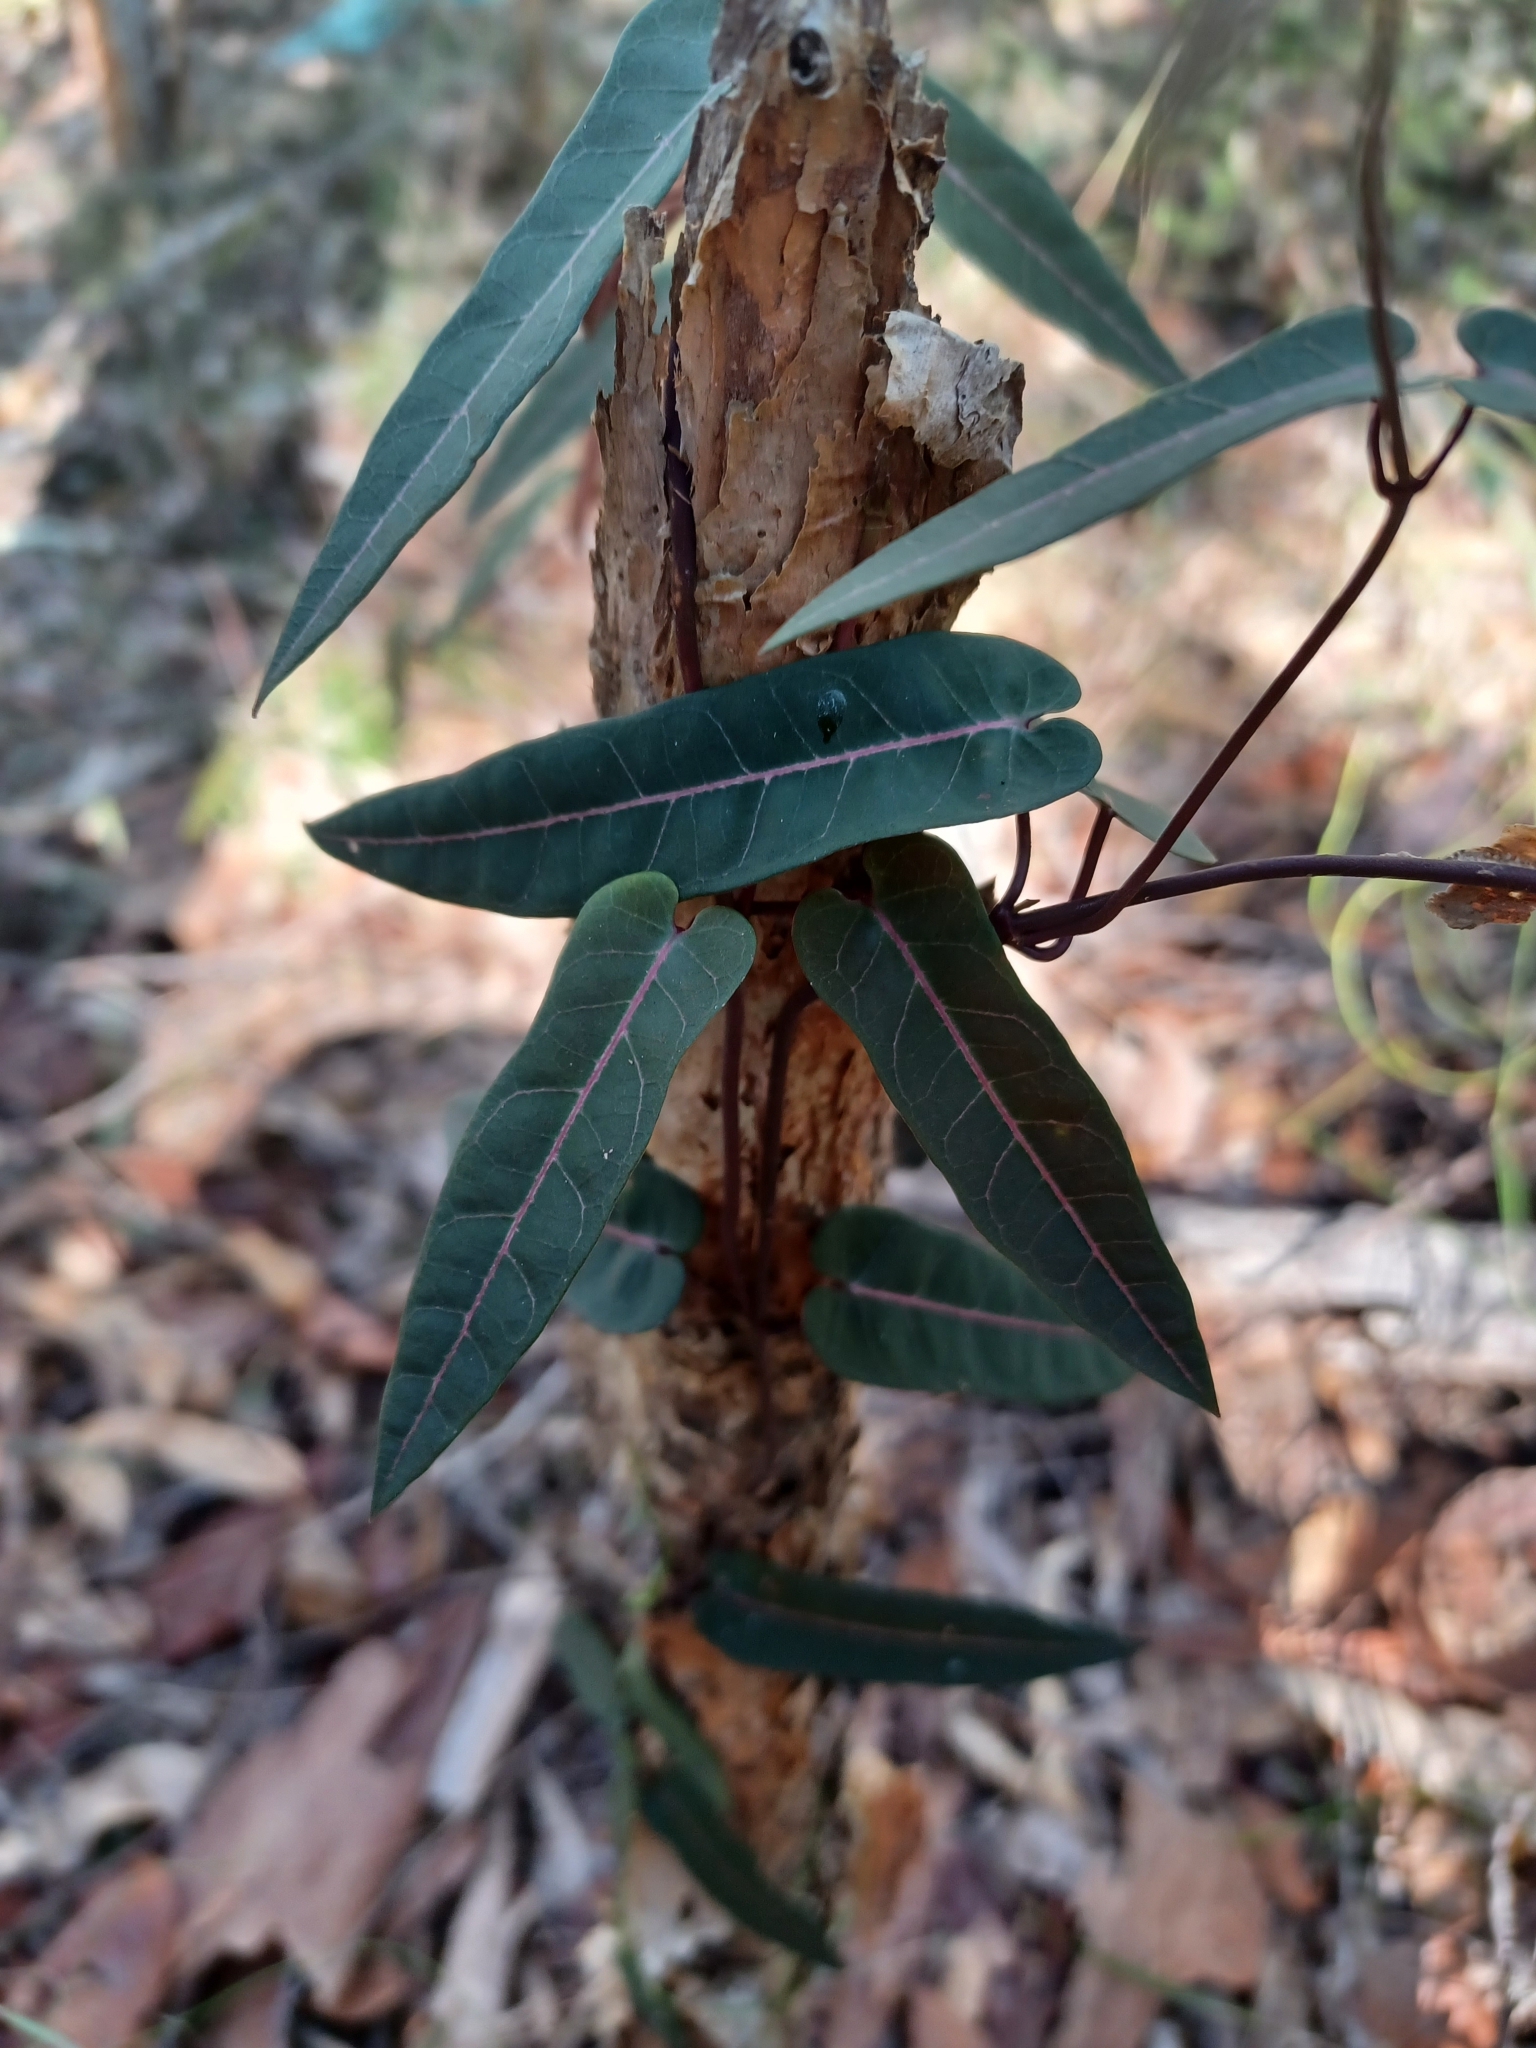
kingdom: Plantae
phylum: Tracheophyta
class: Magnoliopsida
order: Gentianales
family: Apocynaceae
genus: Parsonsia
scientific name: Parsonsia straminea
